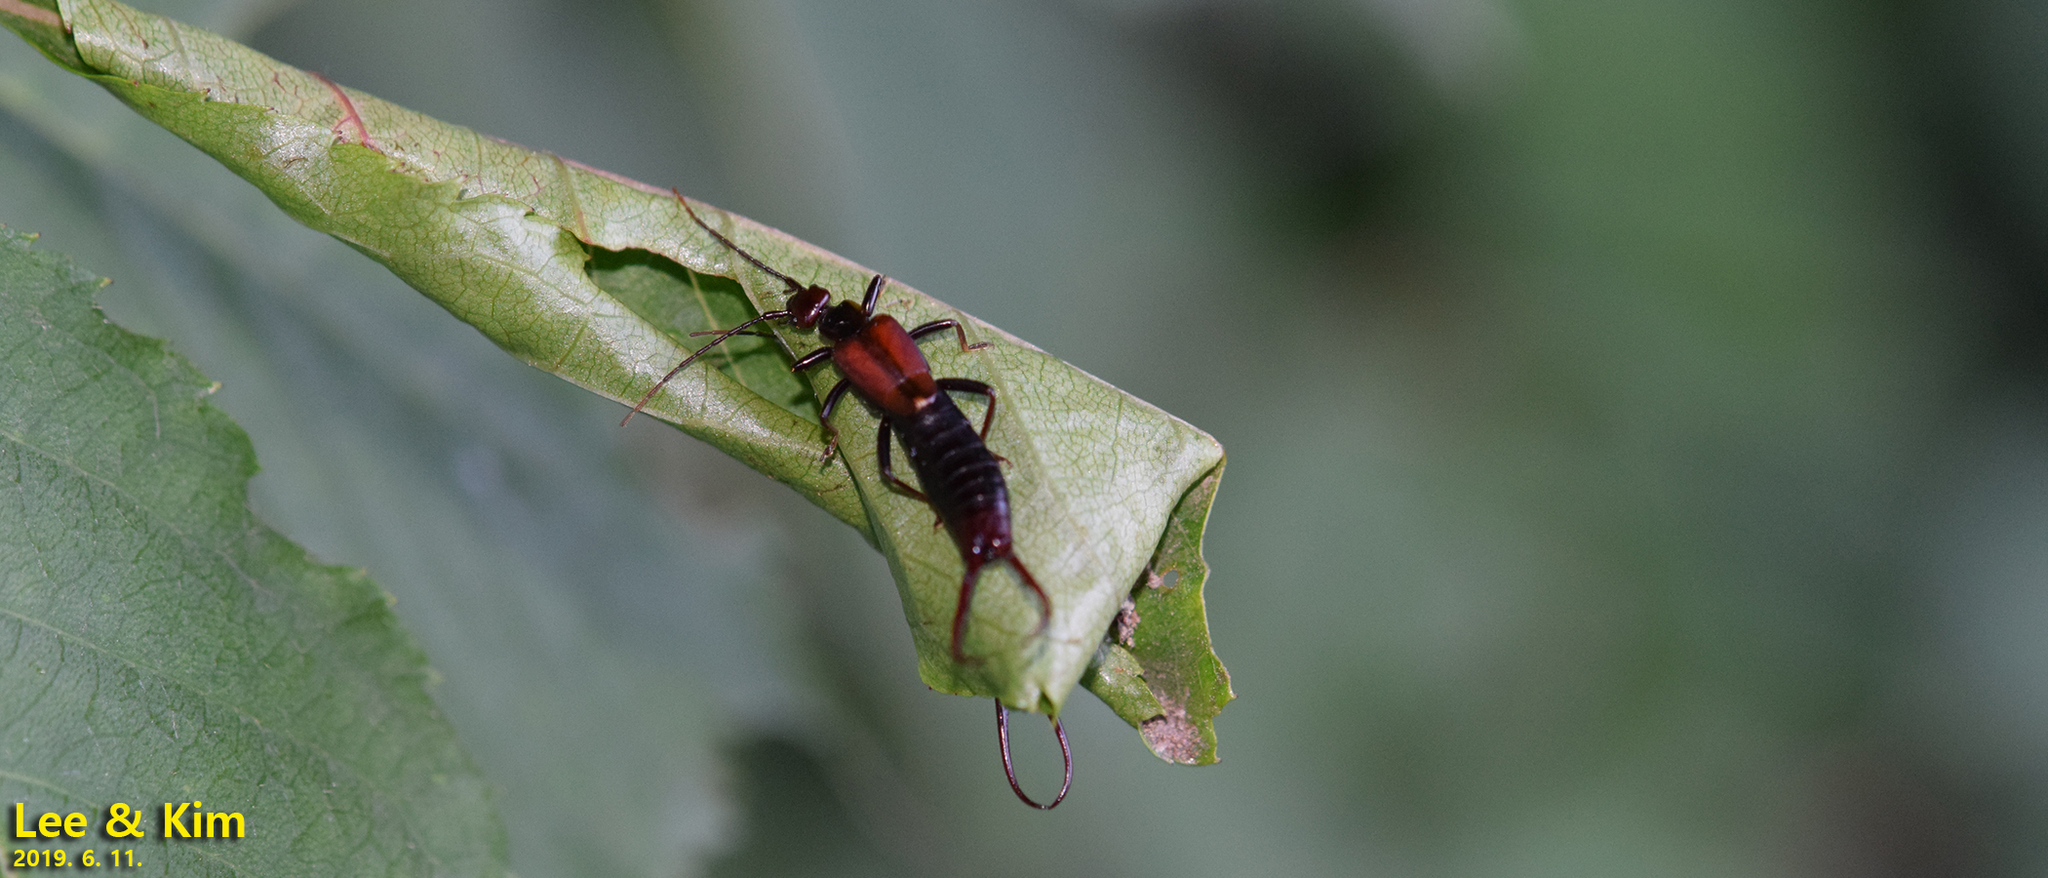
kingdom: Animalia
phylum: Arthropoda
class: Insecta
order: Dermaptera
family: Forficulidae
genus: Timomenus
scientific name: Timomenus komarovi
